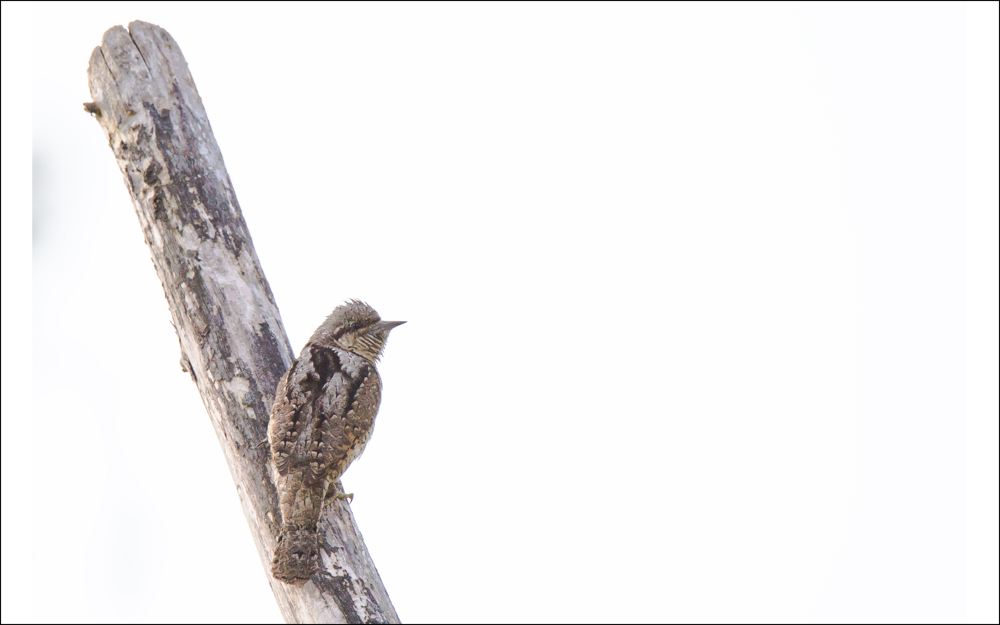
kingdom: Animalia
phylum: Chordata
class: Aves
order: Piciformes
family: Picidae
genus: Jynx
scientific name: Jynx torquilla
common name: Eurasian wryneck
